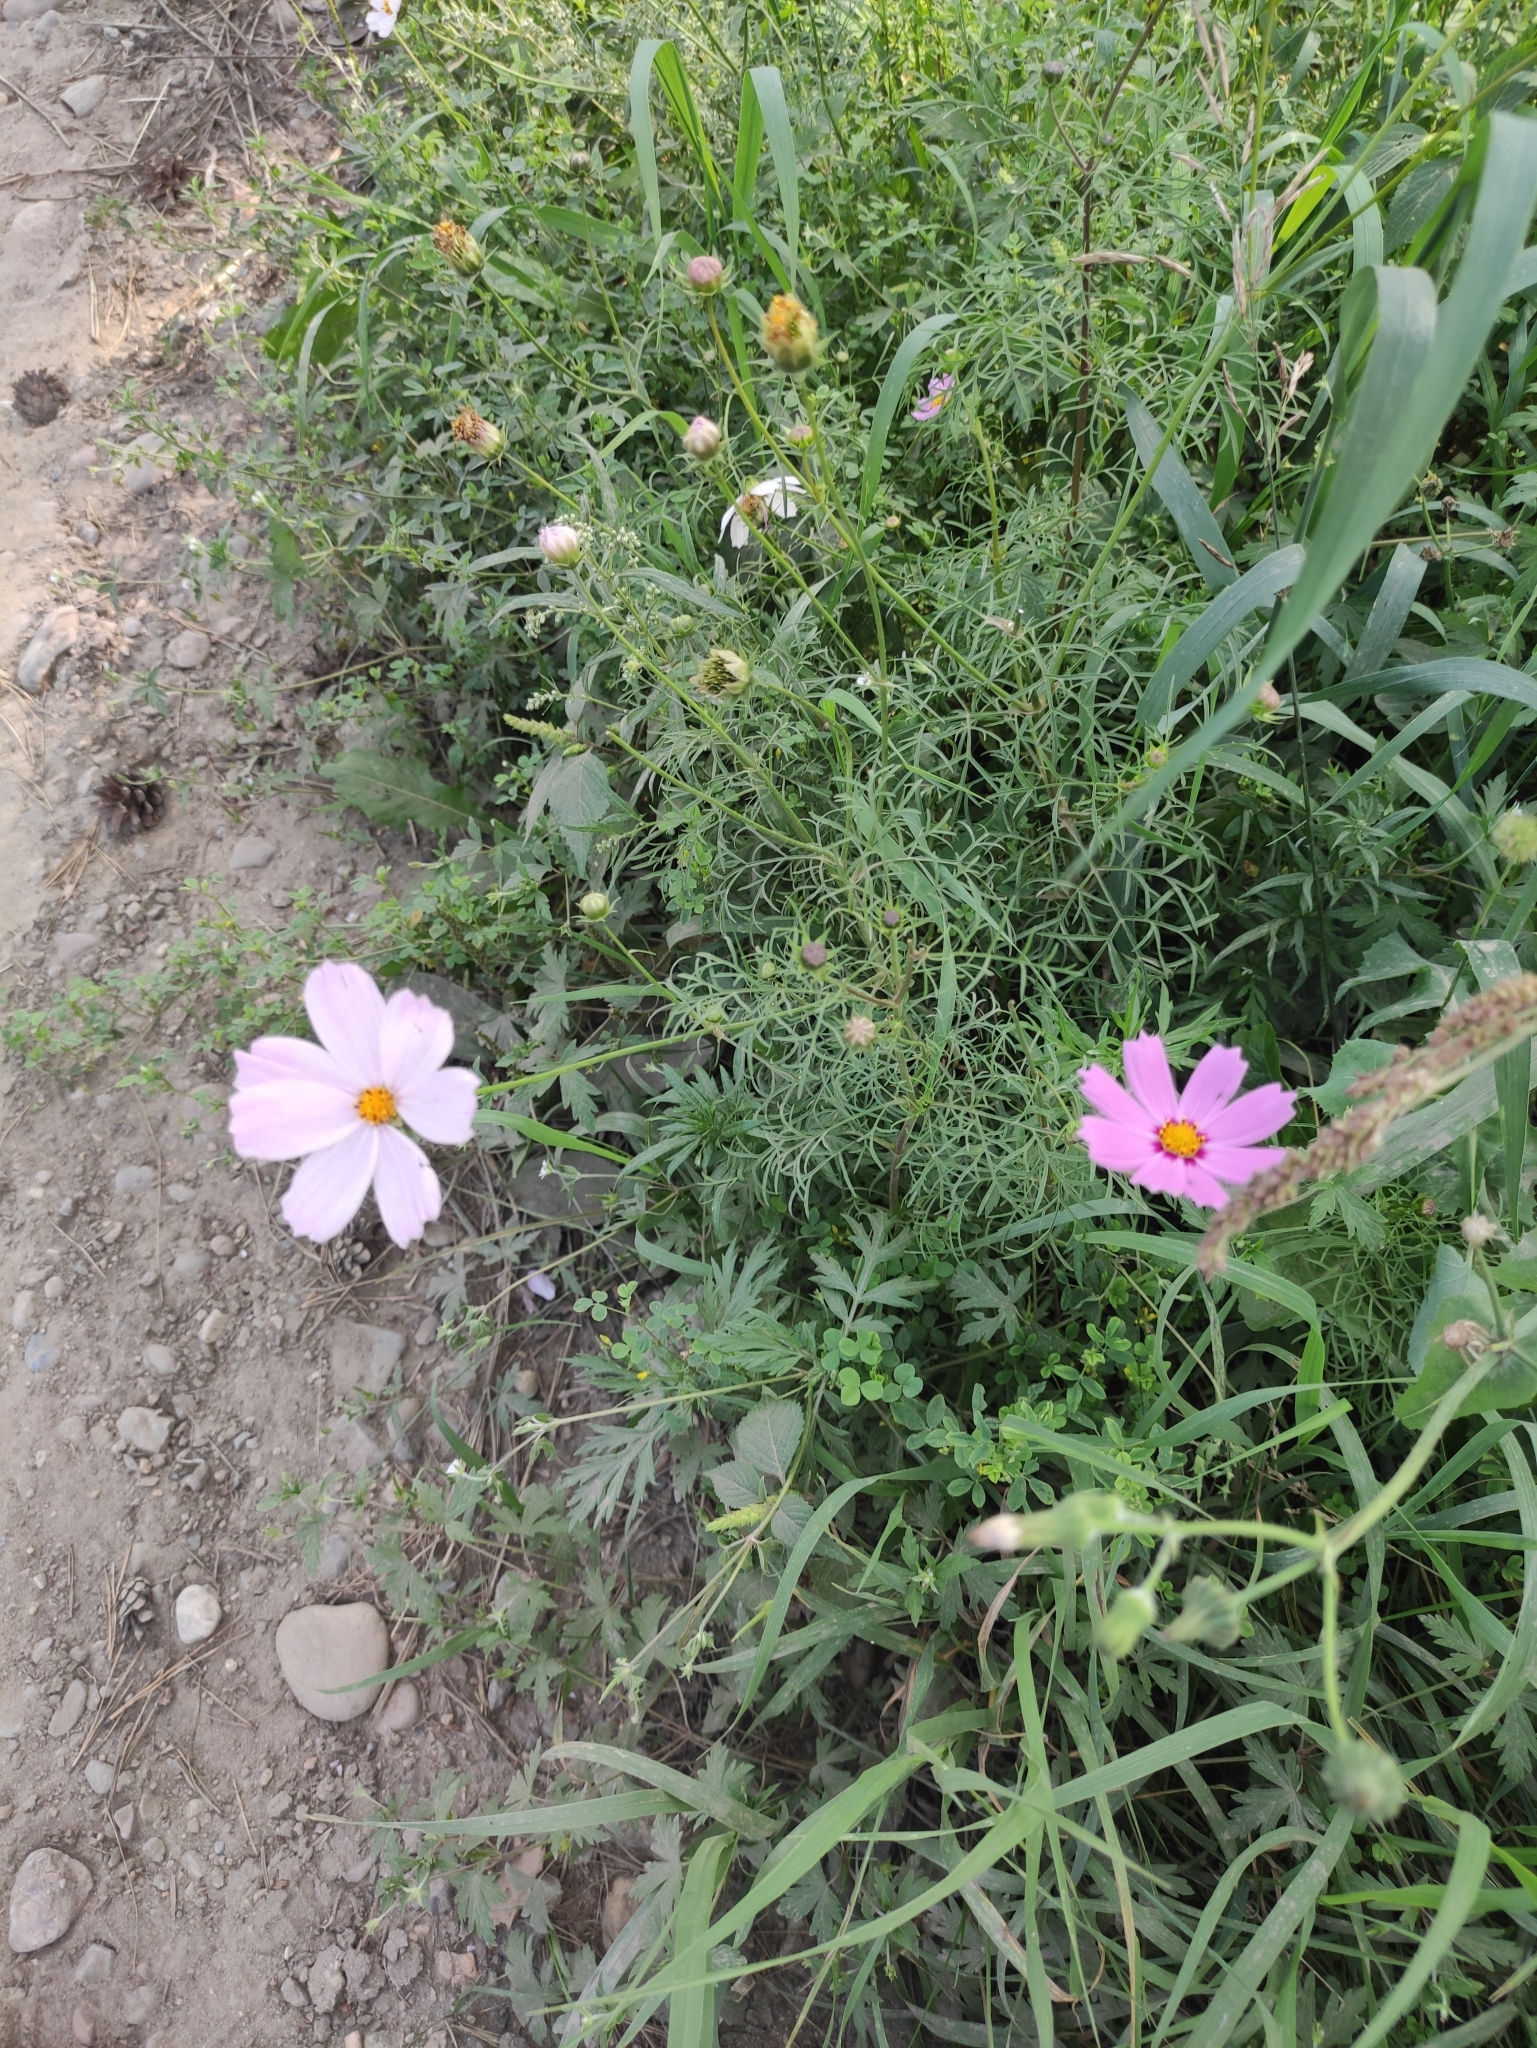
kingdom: Plantae
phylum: Tracheophyta
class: Magnoliopsida
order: Asterales
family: Asteraceae
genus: Cosmos
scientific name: Cosmos bipinnatus
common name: Garden cosmos
